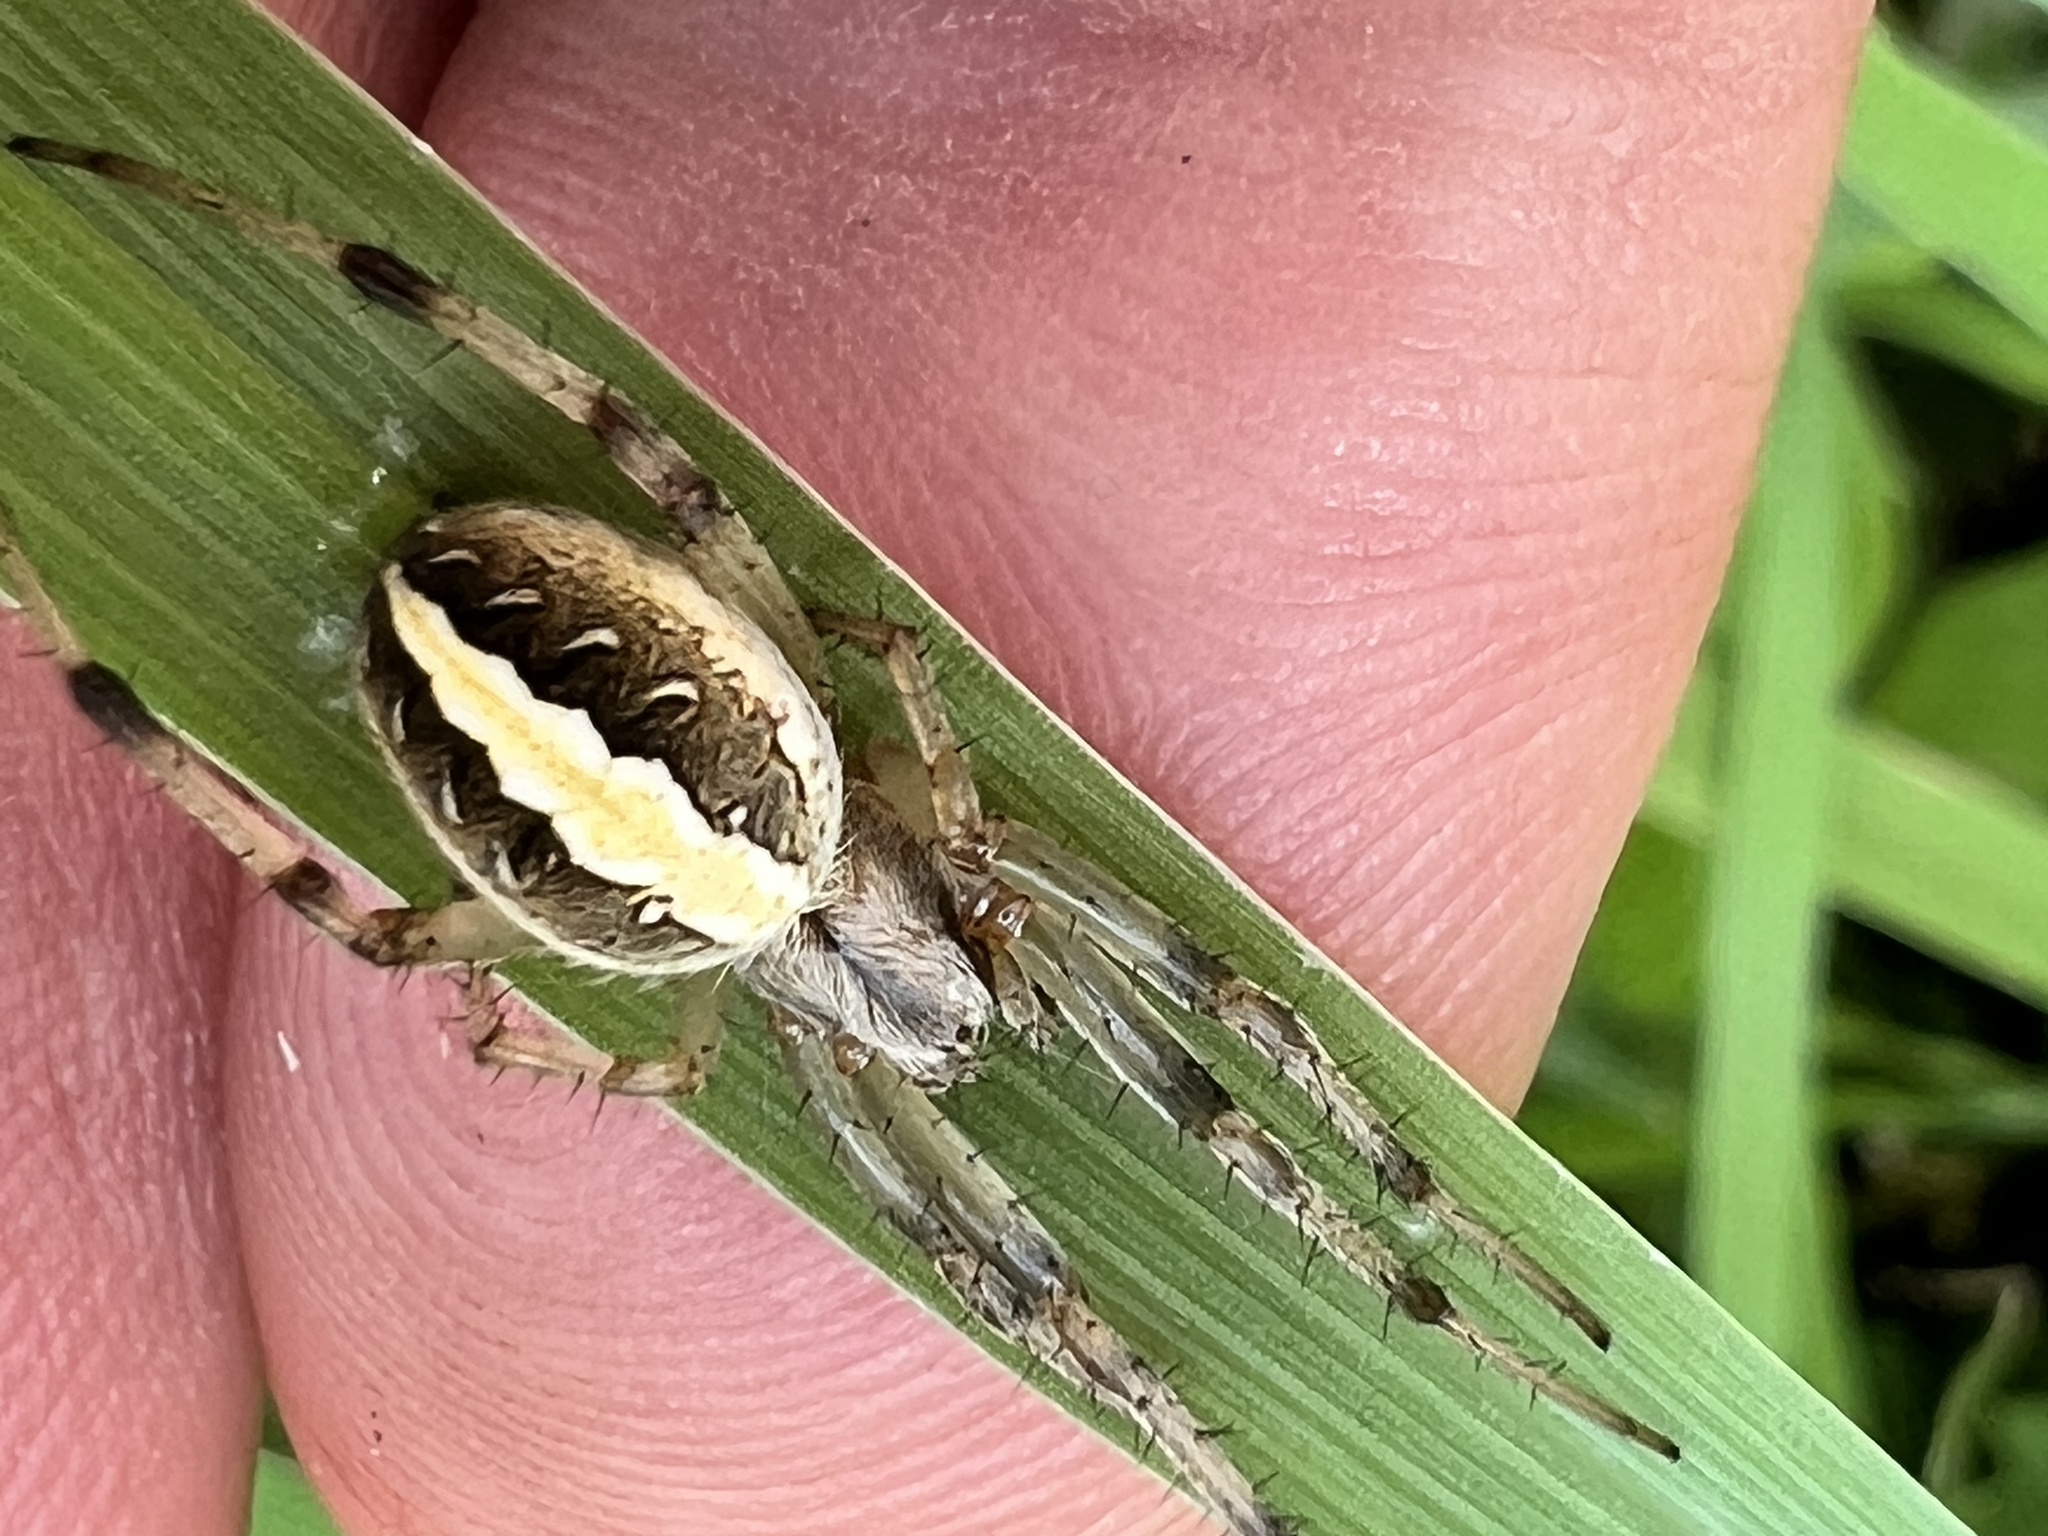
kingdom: Animalia
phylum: Arthropoda
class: Arachnida
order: Araneae
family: Araneidae
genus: Neoscona
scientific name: Neoscona theisi
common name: Spider
